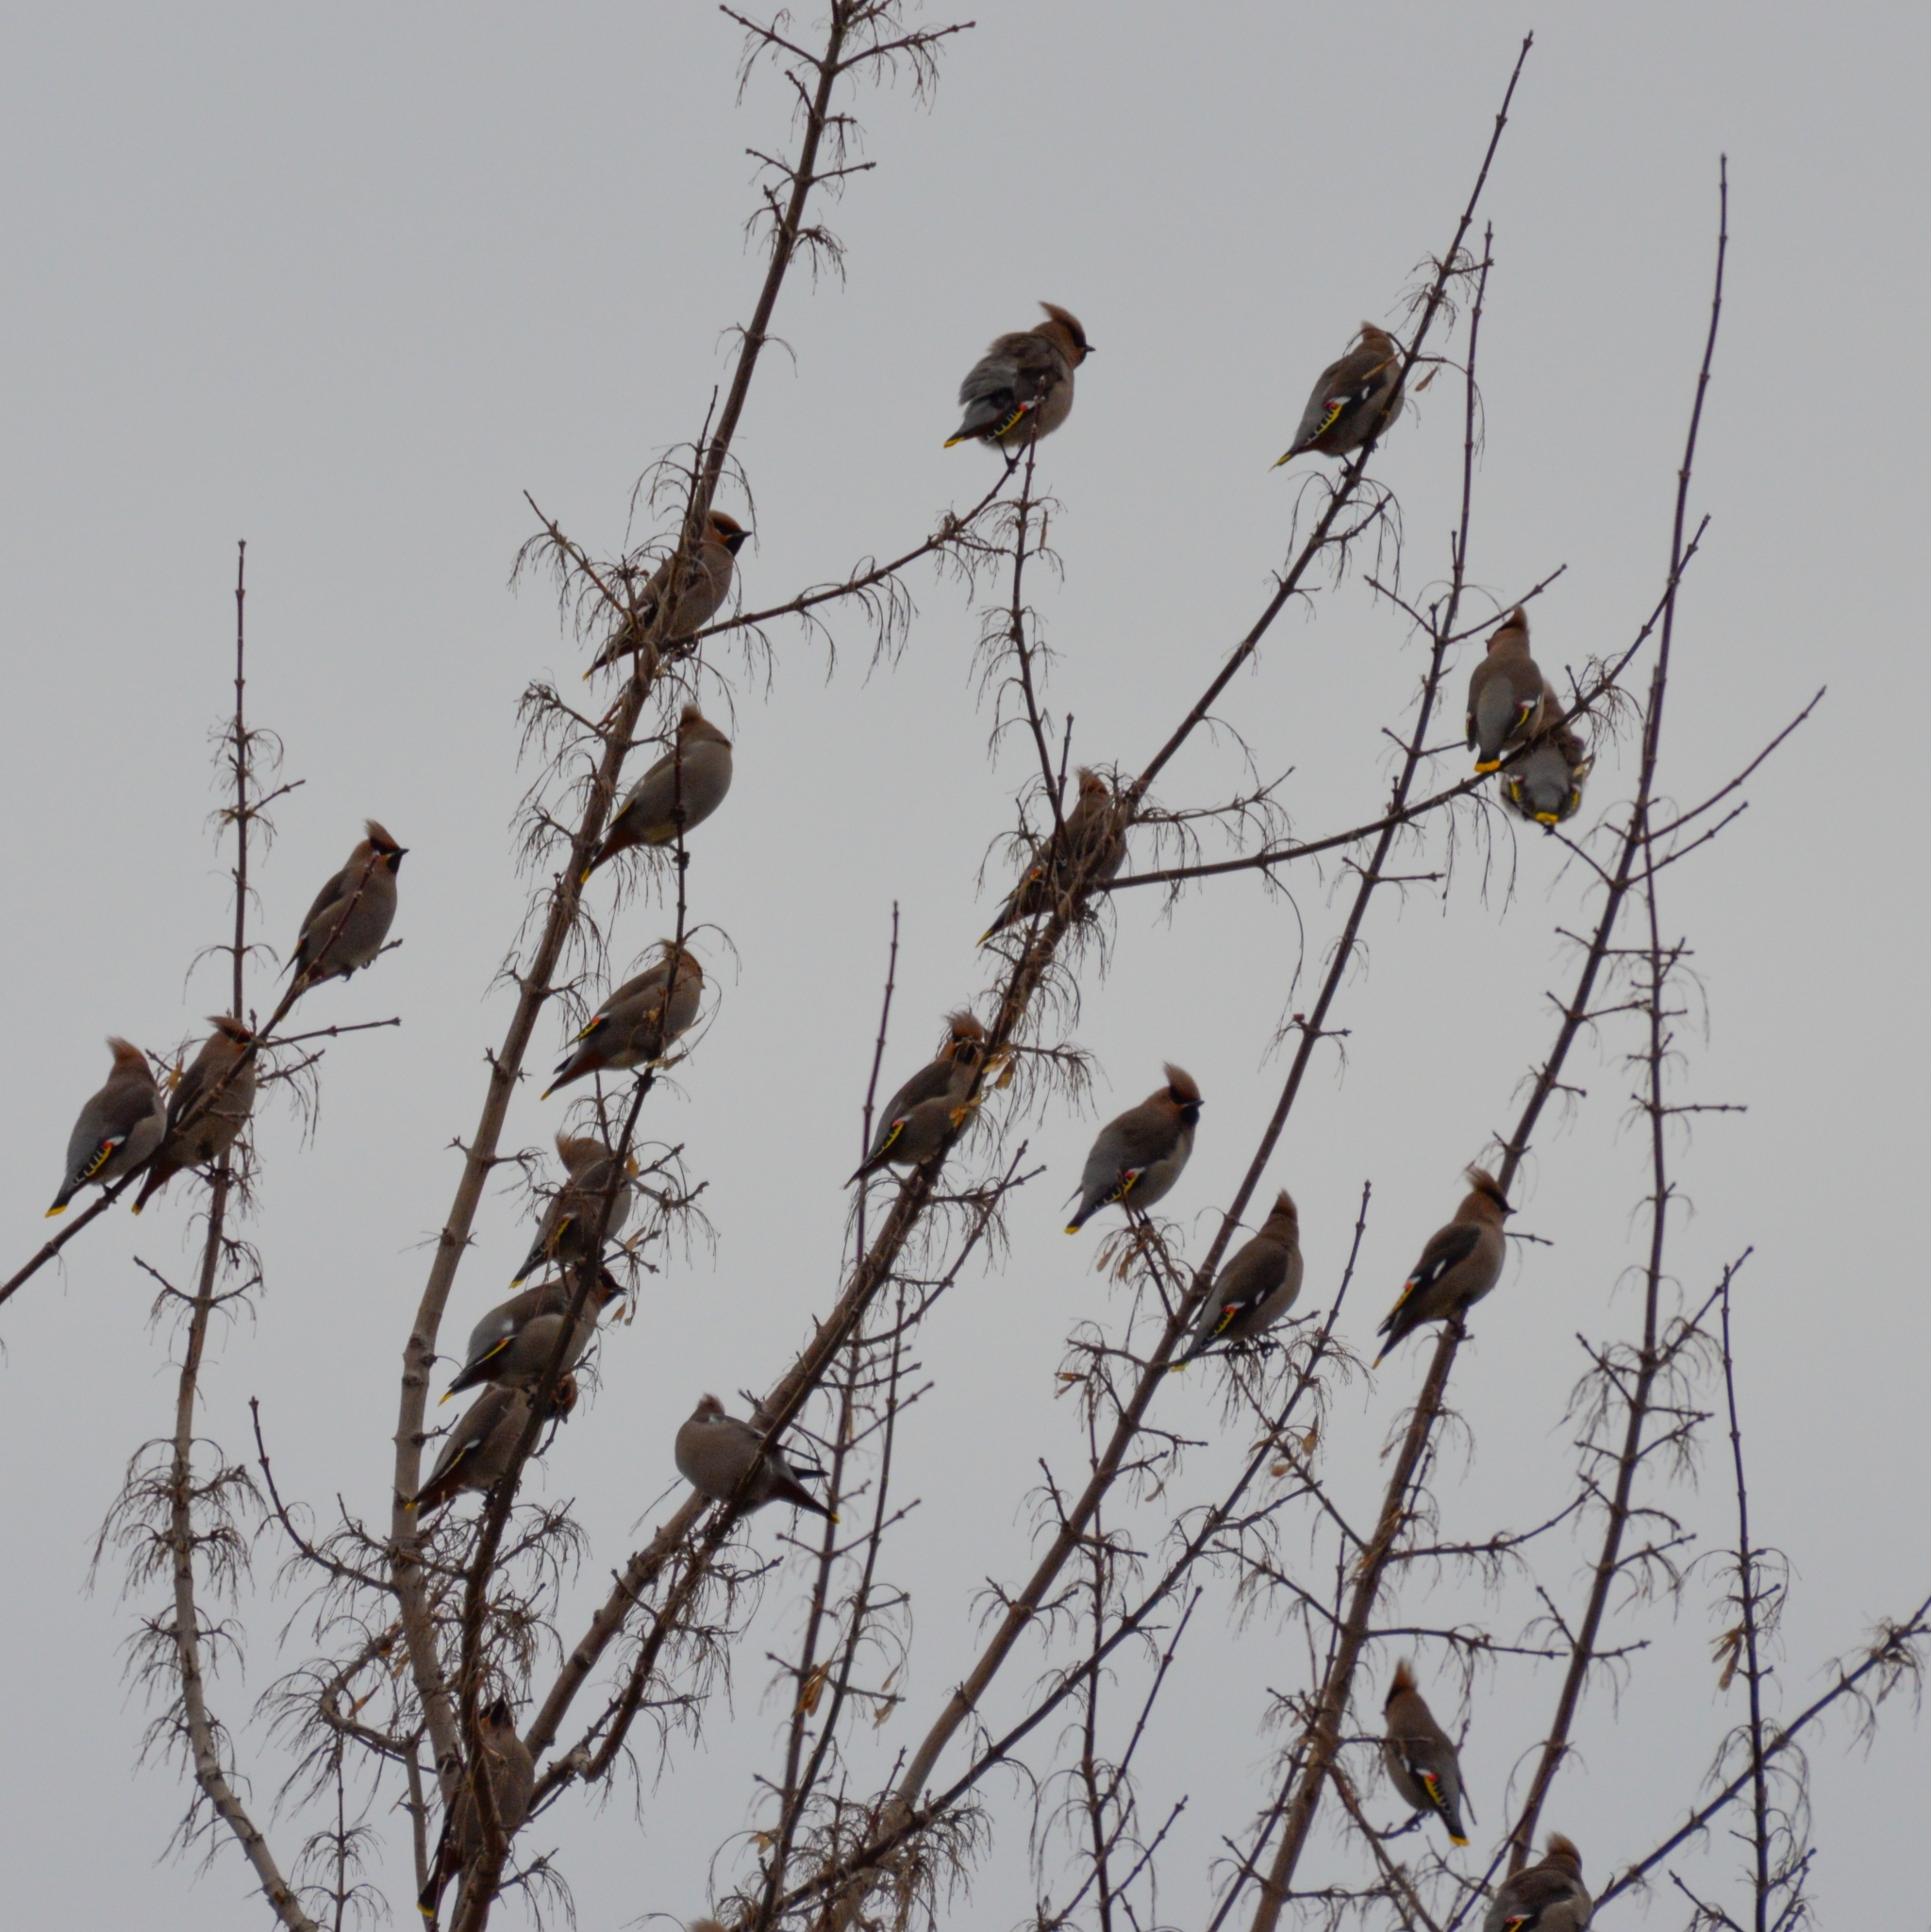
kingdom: Animalia
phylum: Chordata
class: Aves
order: Passeriformes
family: Bombycillidae
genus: Bombycilla
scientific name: Bombycilla garrulus
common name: Bohemian waxwing
